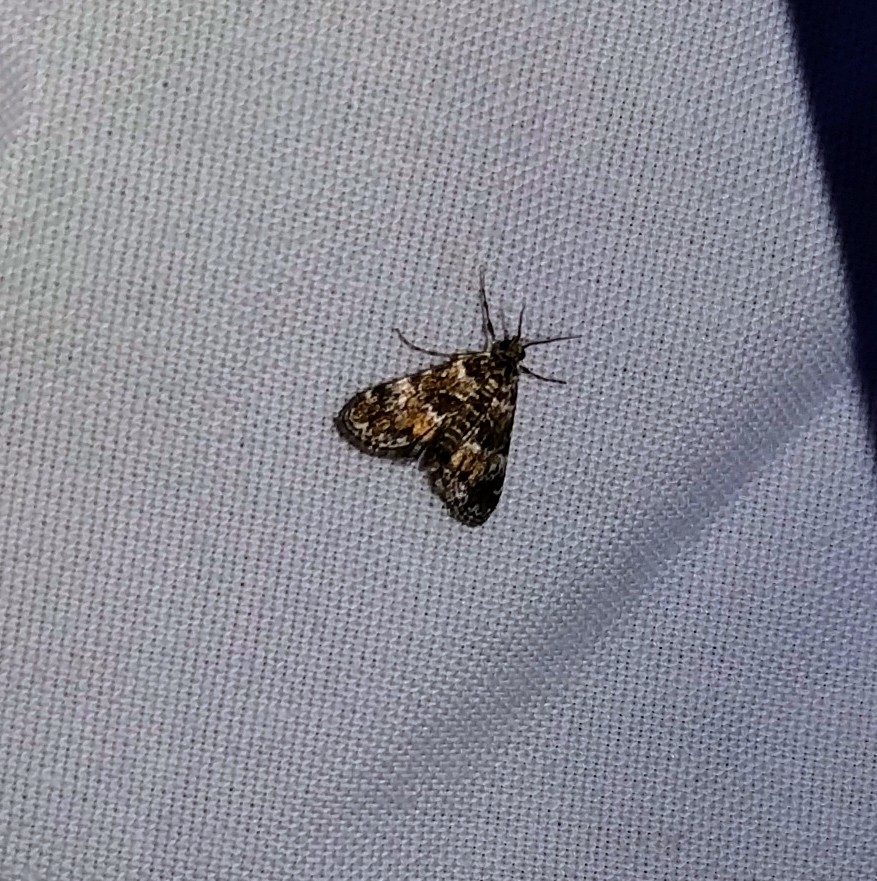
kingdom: Animalia
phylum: Arthropoda
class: Insecta
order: Lepidoptera
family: Crambidae
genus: Elophila
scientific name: Elophila obliteralis
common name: Waterlily leafcutter moth
